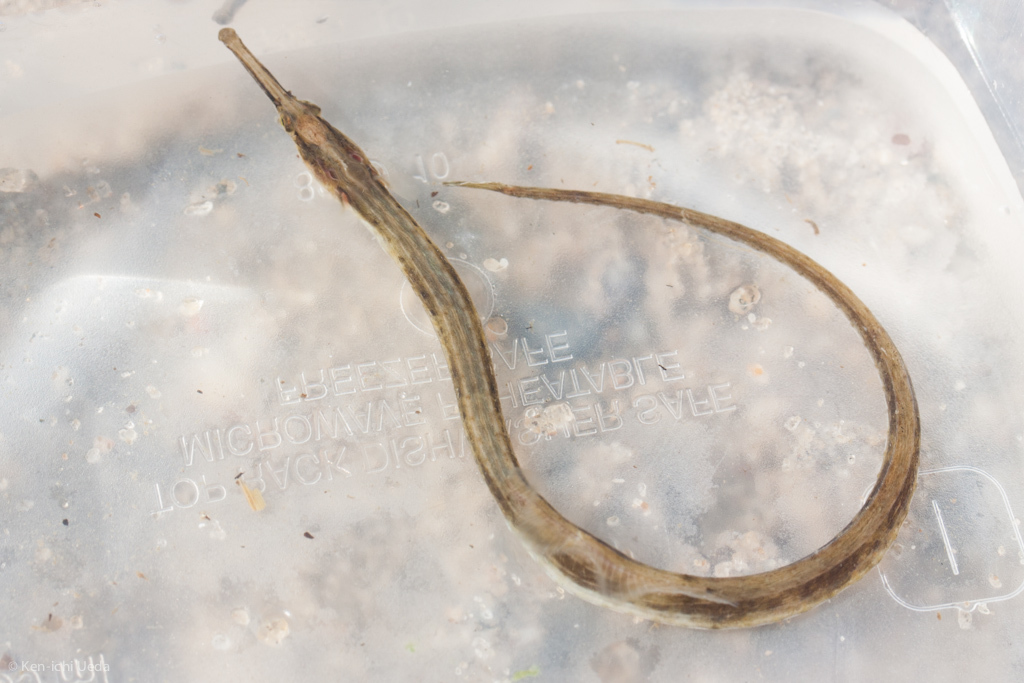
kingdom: Animalia
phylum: Chordata
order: Syngnathiformes
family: Syngnathidae
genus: Syngnathus
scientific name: Syngnathus fuscus
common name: Northern pipefish
